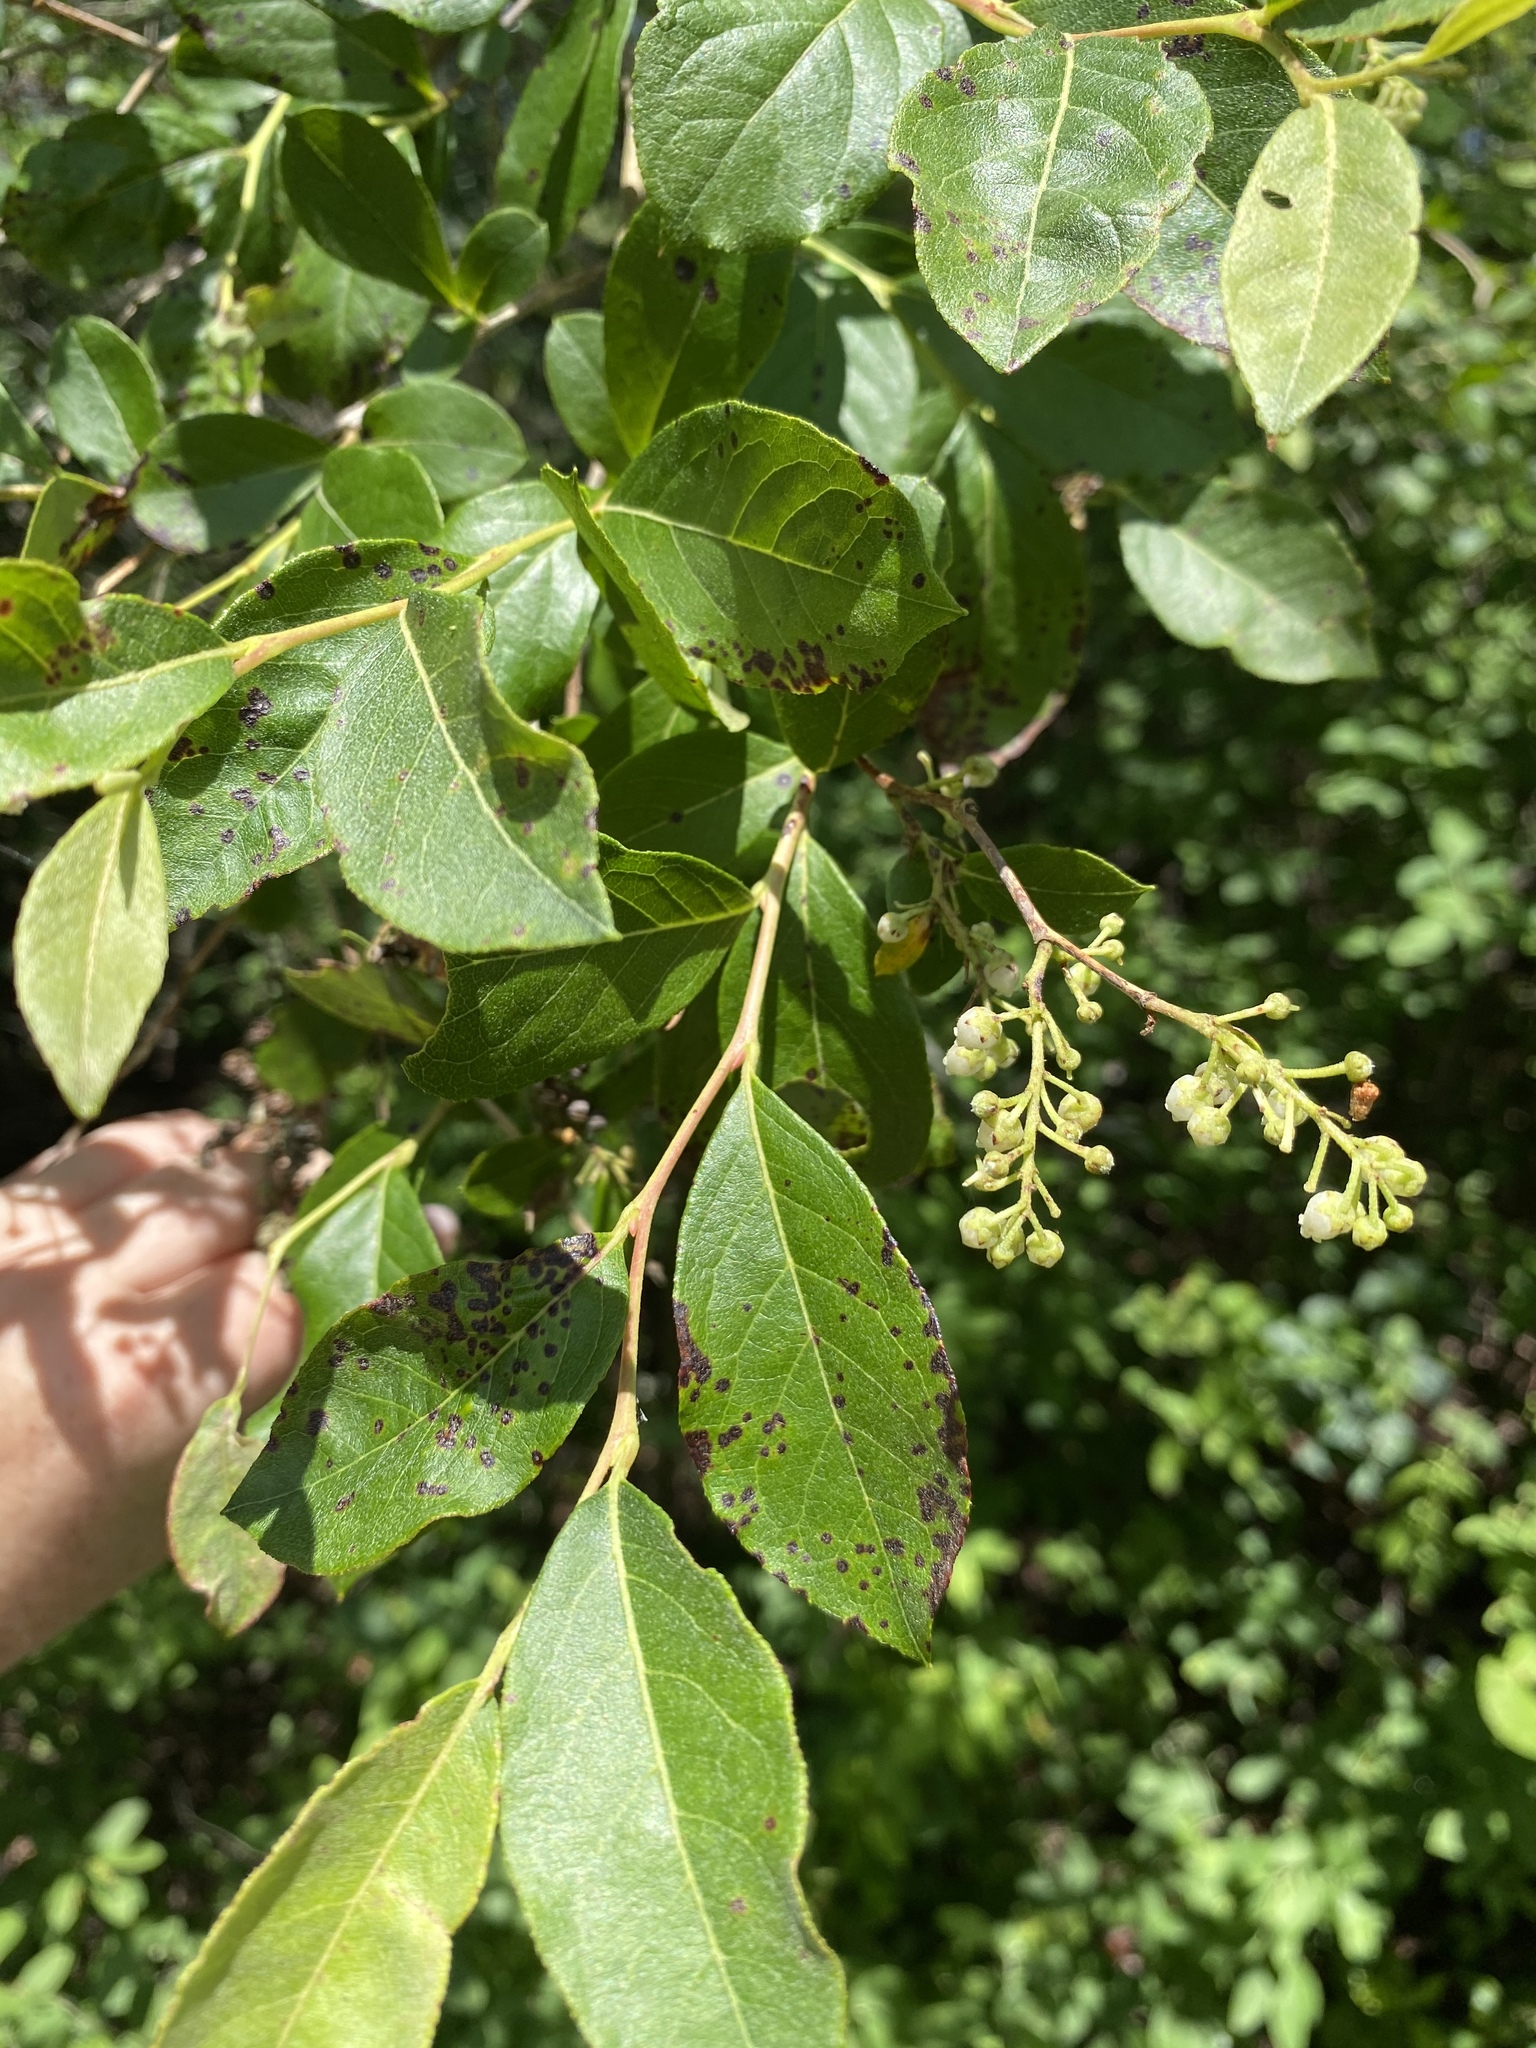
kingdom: Plantae
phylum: Tracheophyta
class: Magnoliopsida
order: Ericales
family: Ericaceae
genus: Lyonia
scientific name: Lyonia ligustrina
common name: Maleberry
